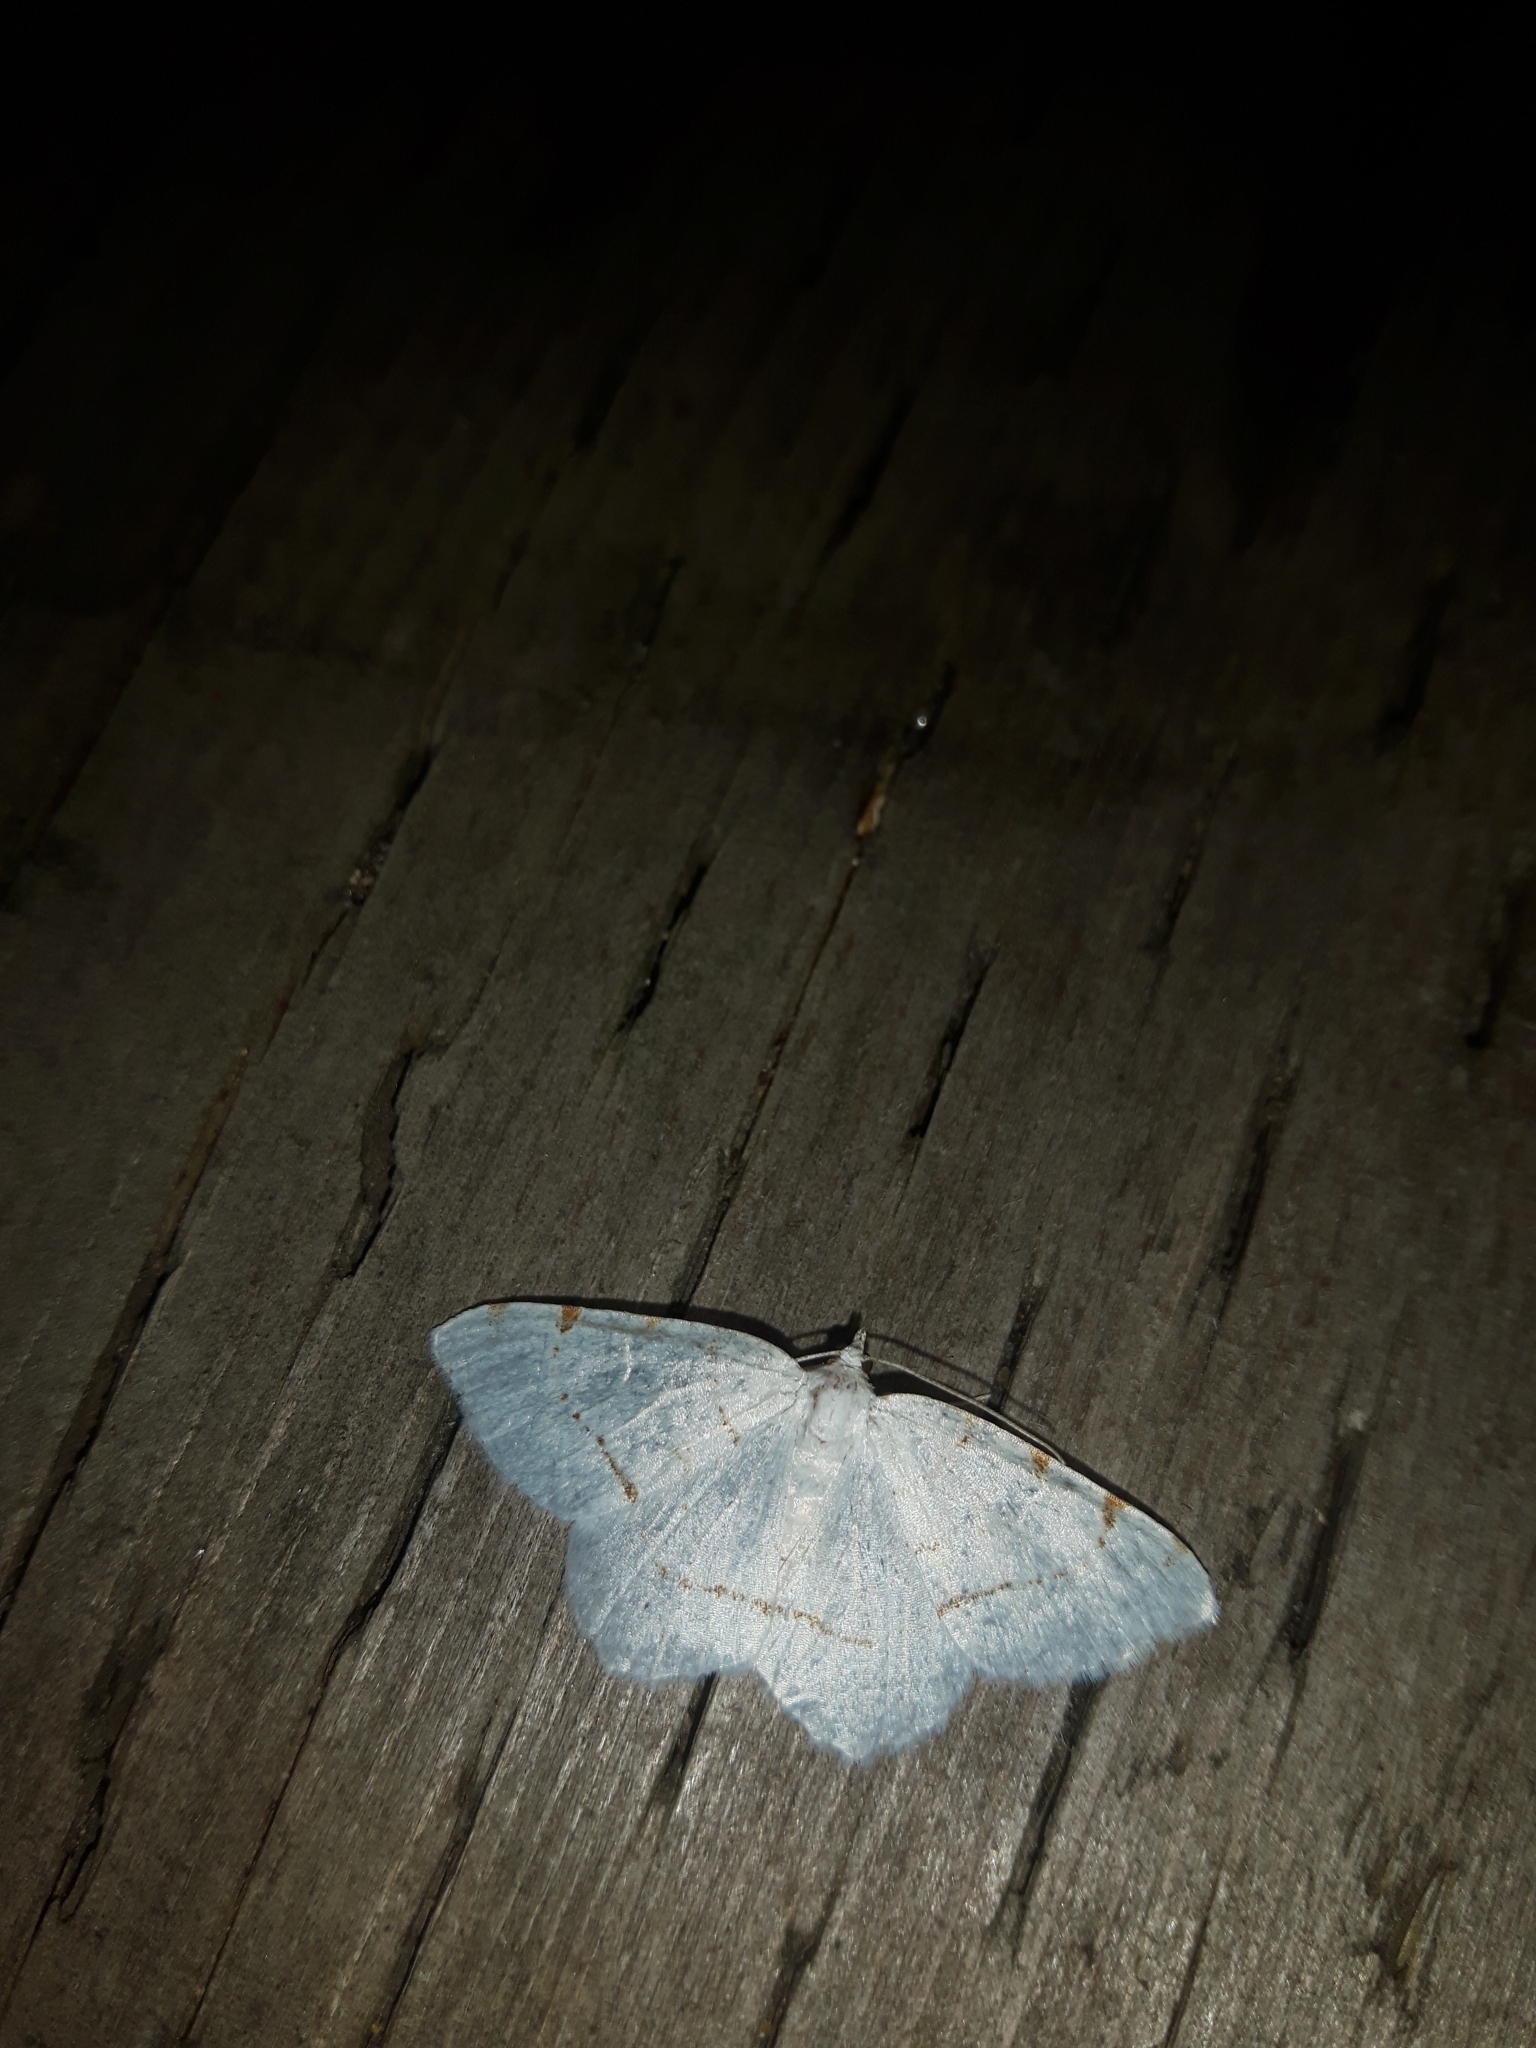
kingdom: Animalia
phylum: Arthropoda
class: Insecta
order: Lepidoptera
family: Geometridae
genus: Macaria
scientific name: Macaria pustularia
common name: Lesser maple spanworm moth
